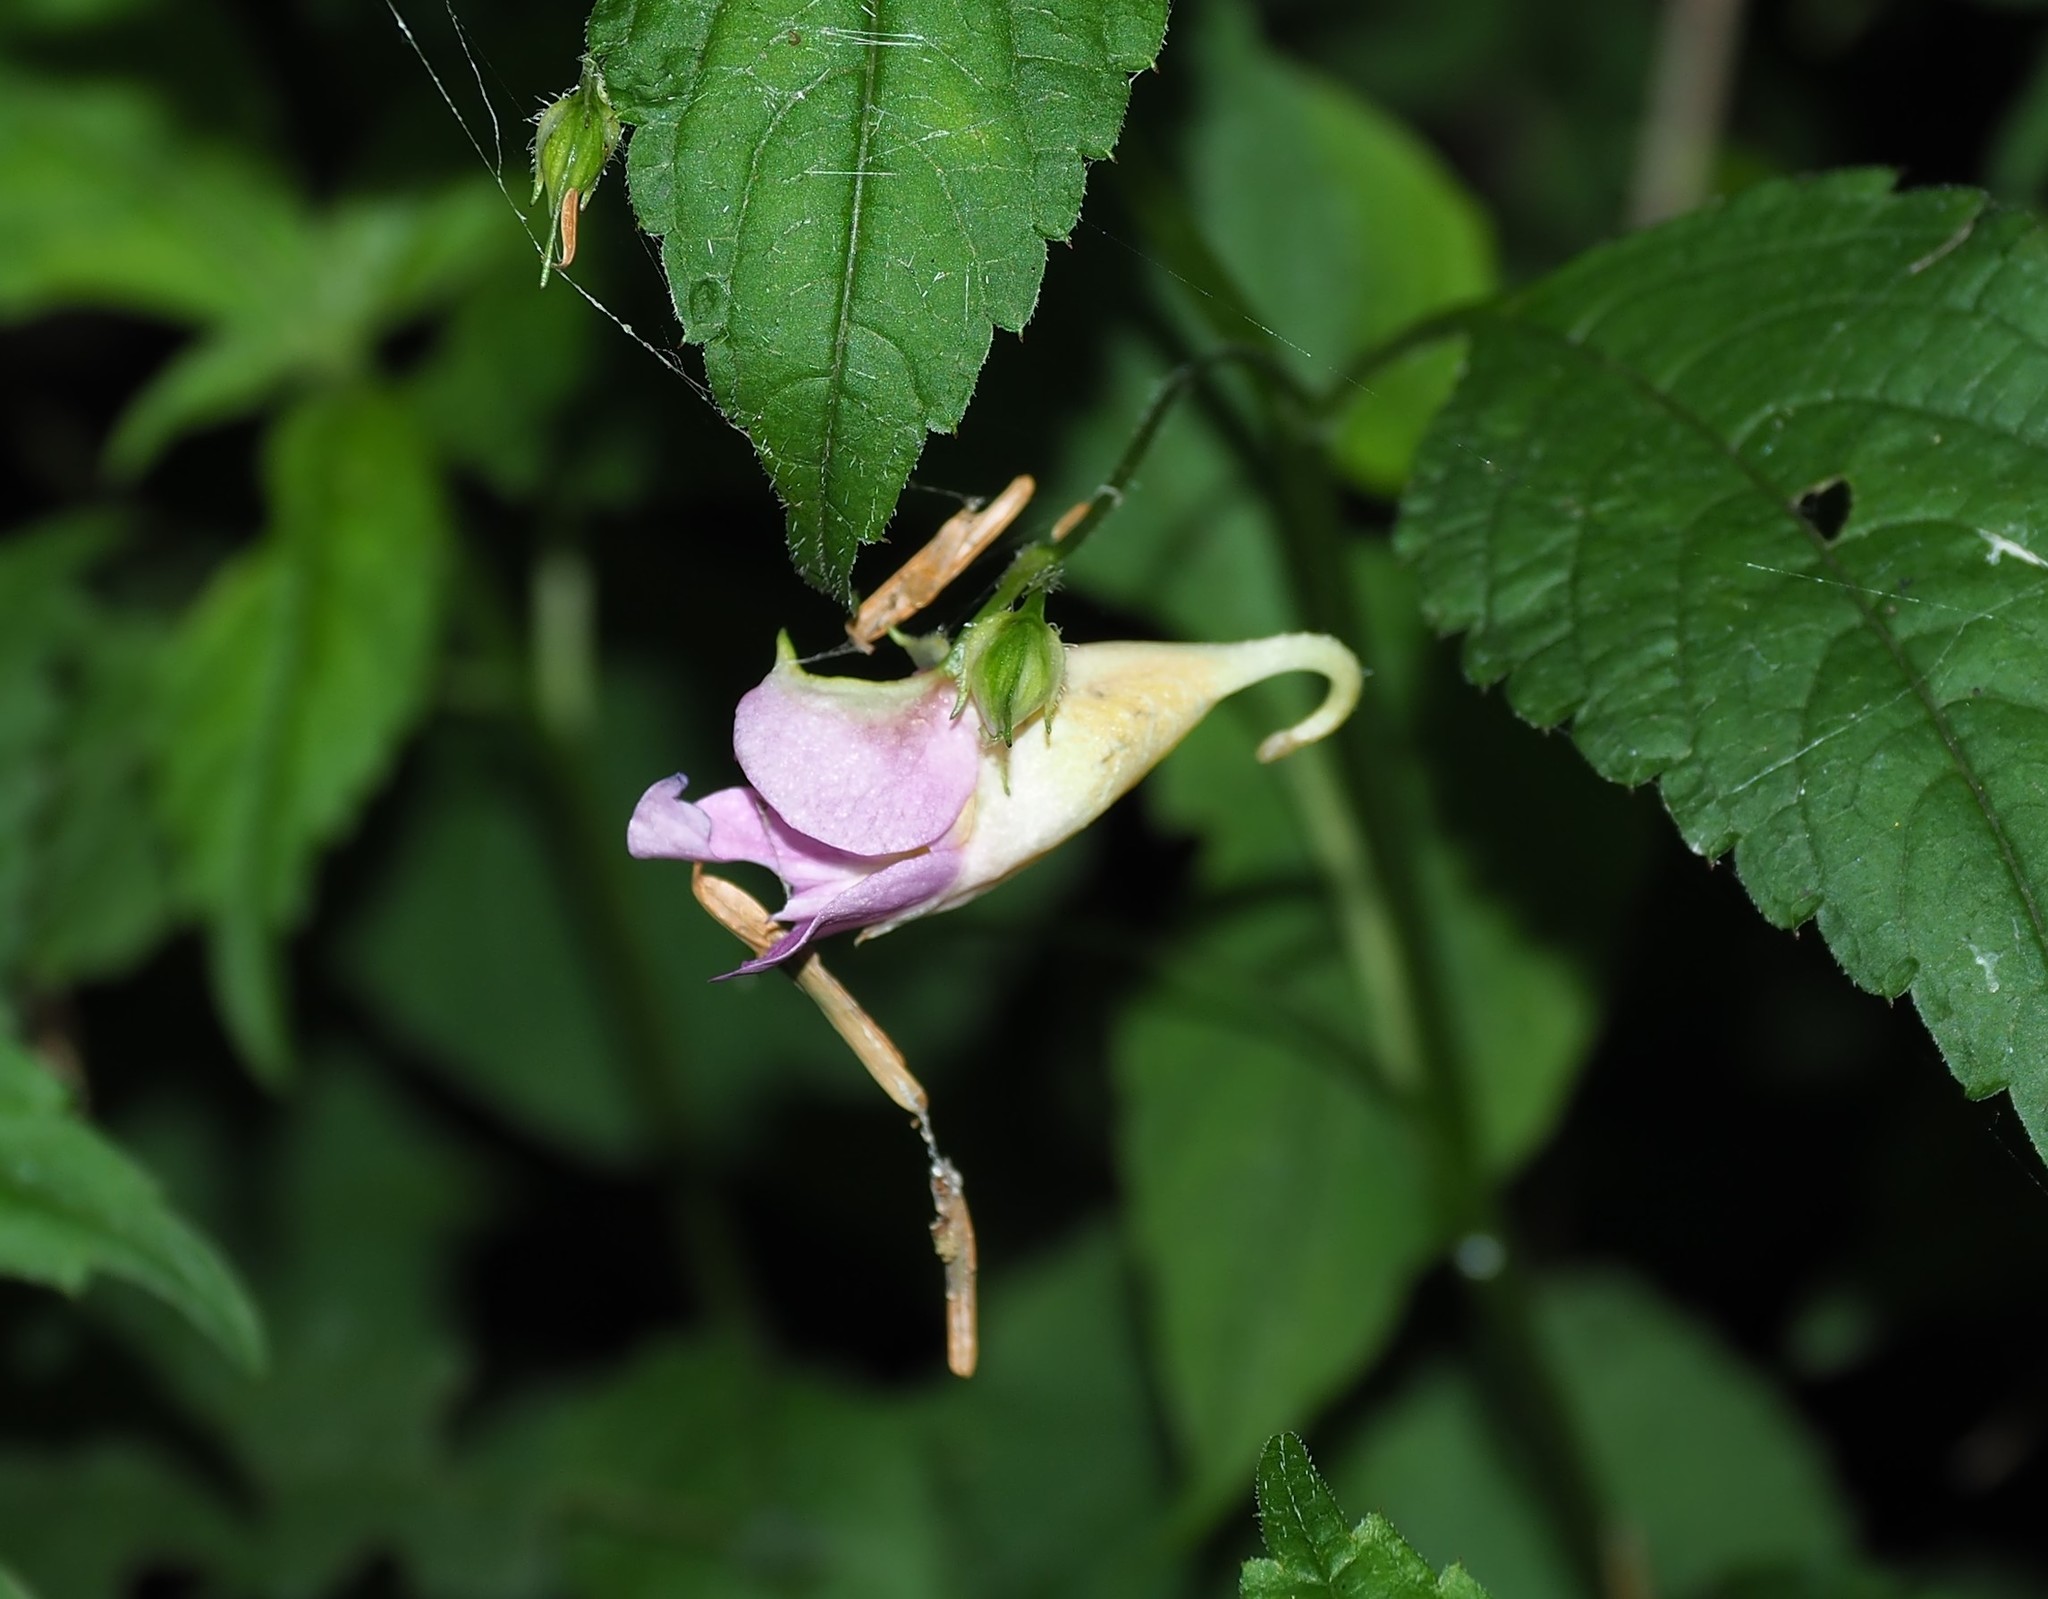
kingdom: Plantae
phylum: Tracheophyta
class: Magnoliopsida
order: Ericales
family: Balsaminaceae
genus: Impatiens
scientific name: Impatiens uniflora
